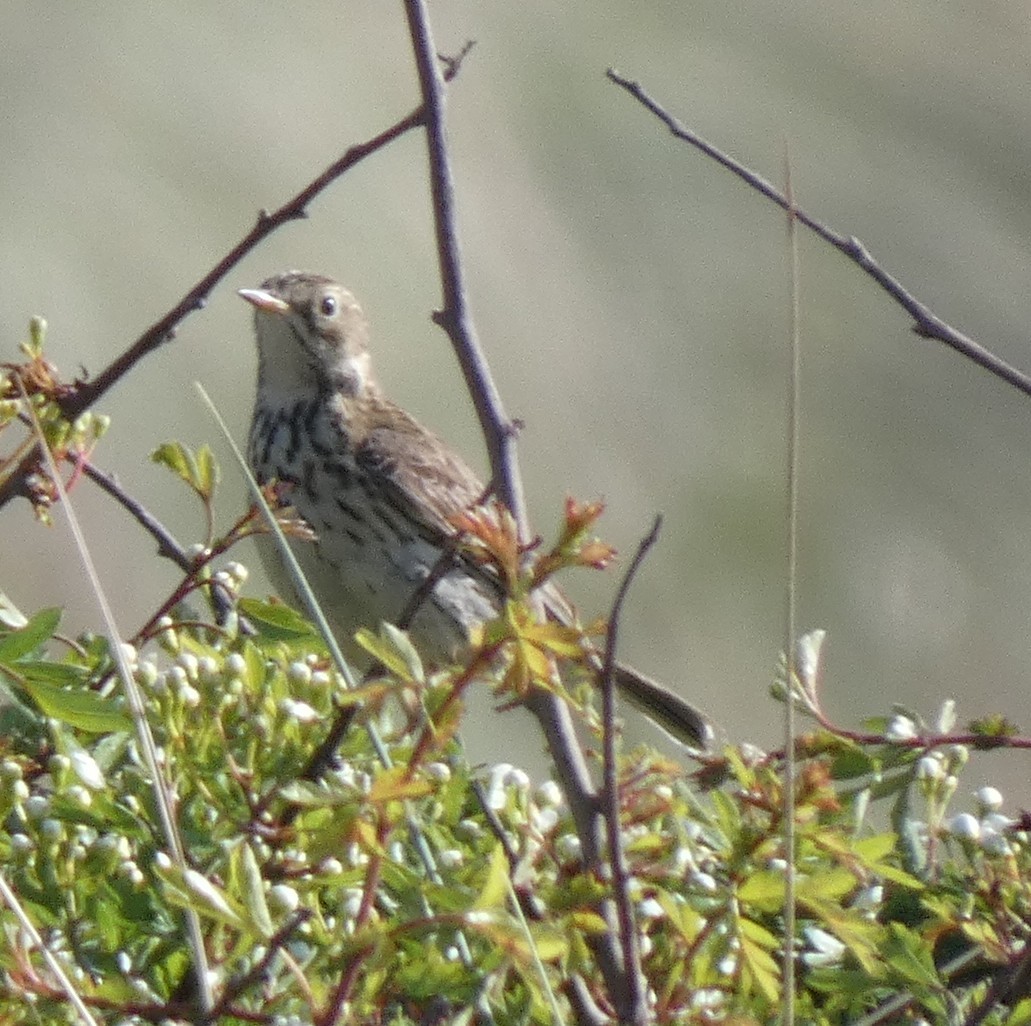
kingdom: Animalia
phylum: Chordata
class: Aves
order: Passeriformes
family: Motacillidae
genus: Anthus
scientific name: Anthus pratensis
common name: Meadow pipit
